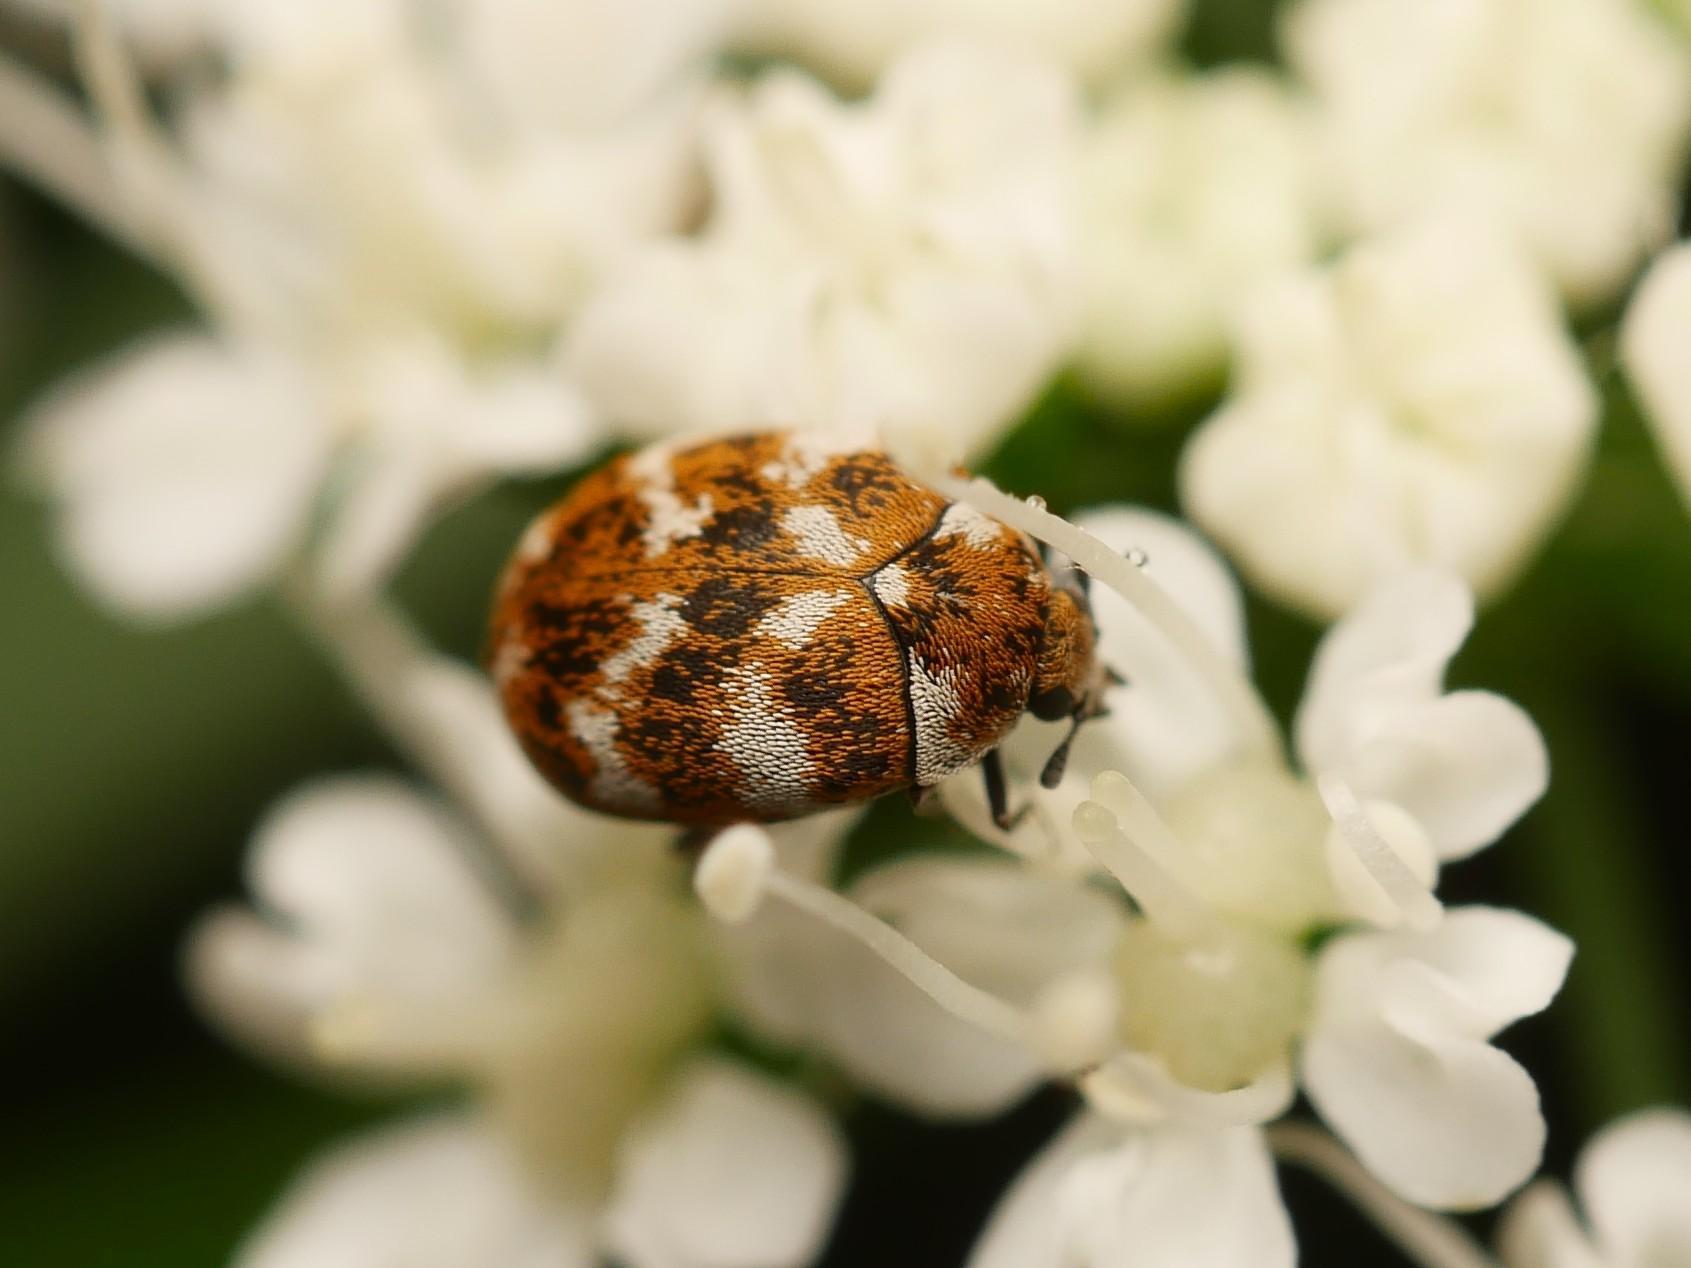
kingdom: Animalia
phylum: Arthropoda
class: Insecta
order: Coleoptera
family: Dermestidae
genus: Anthrenus
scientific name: Anthrenus verbasci
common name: Varied carpet beetle
